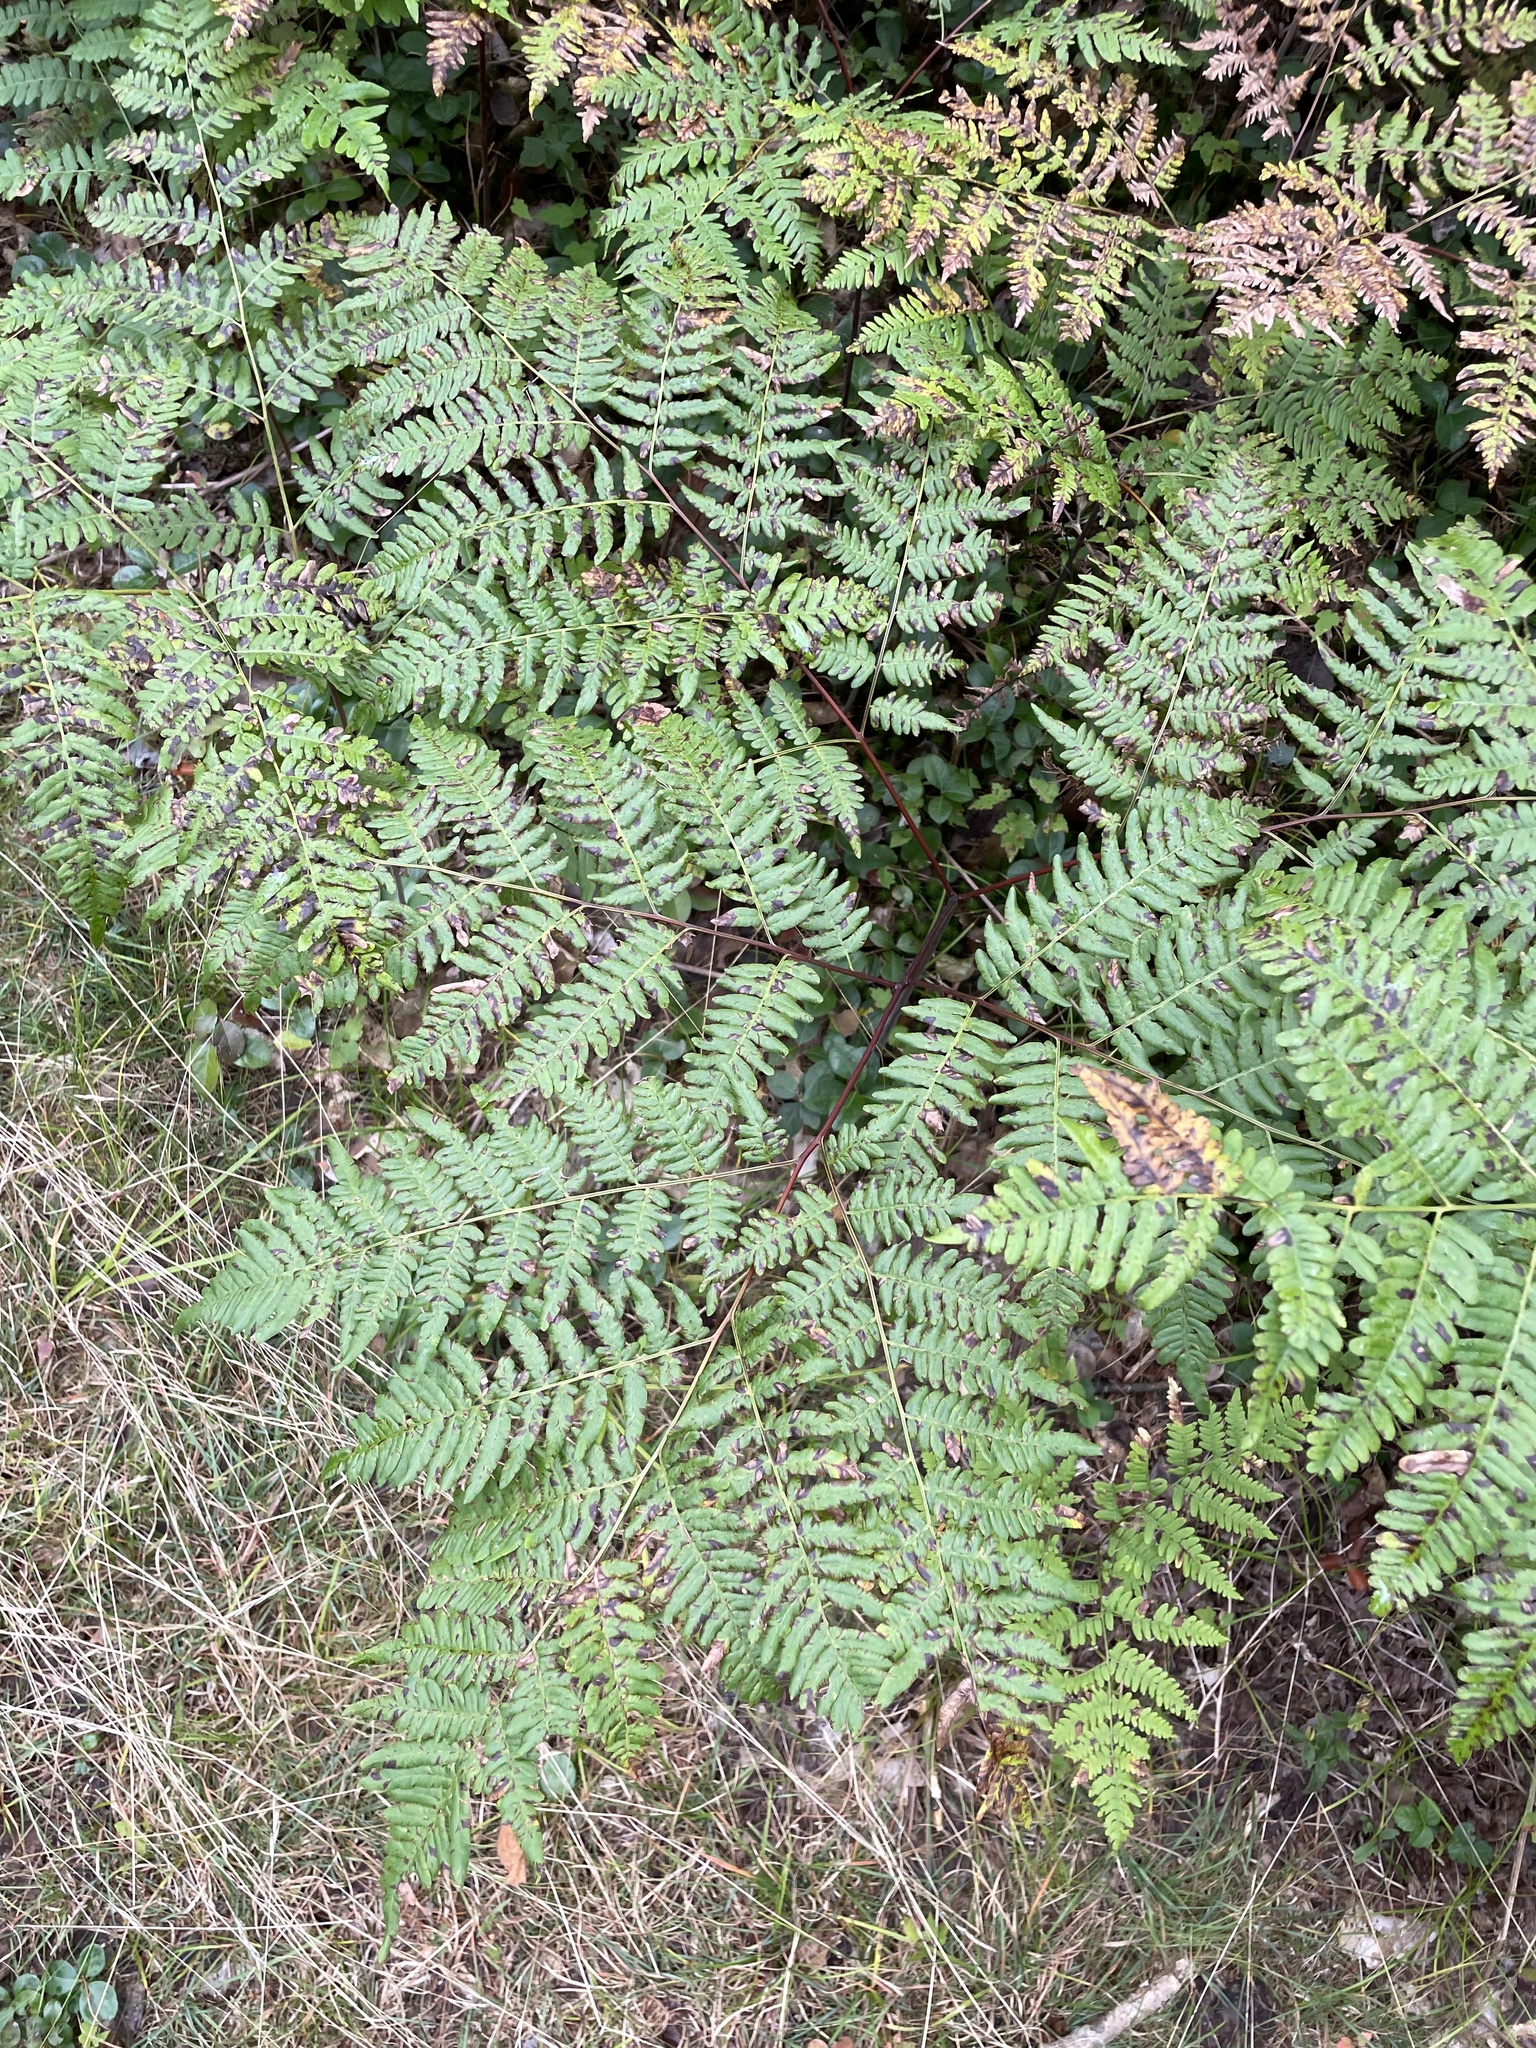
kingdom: Plantae
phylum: Tracheophyta
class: Polypodiopsida
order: Polypodiales
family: Dennstaedtiaceae
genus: Pteridium
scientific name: Pteridium aquilinum
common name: Bracken
